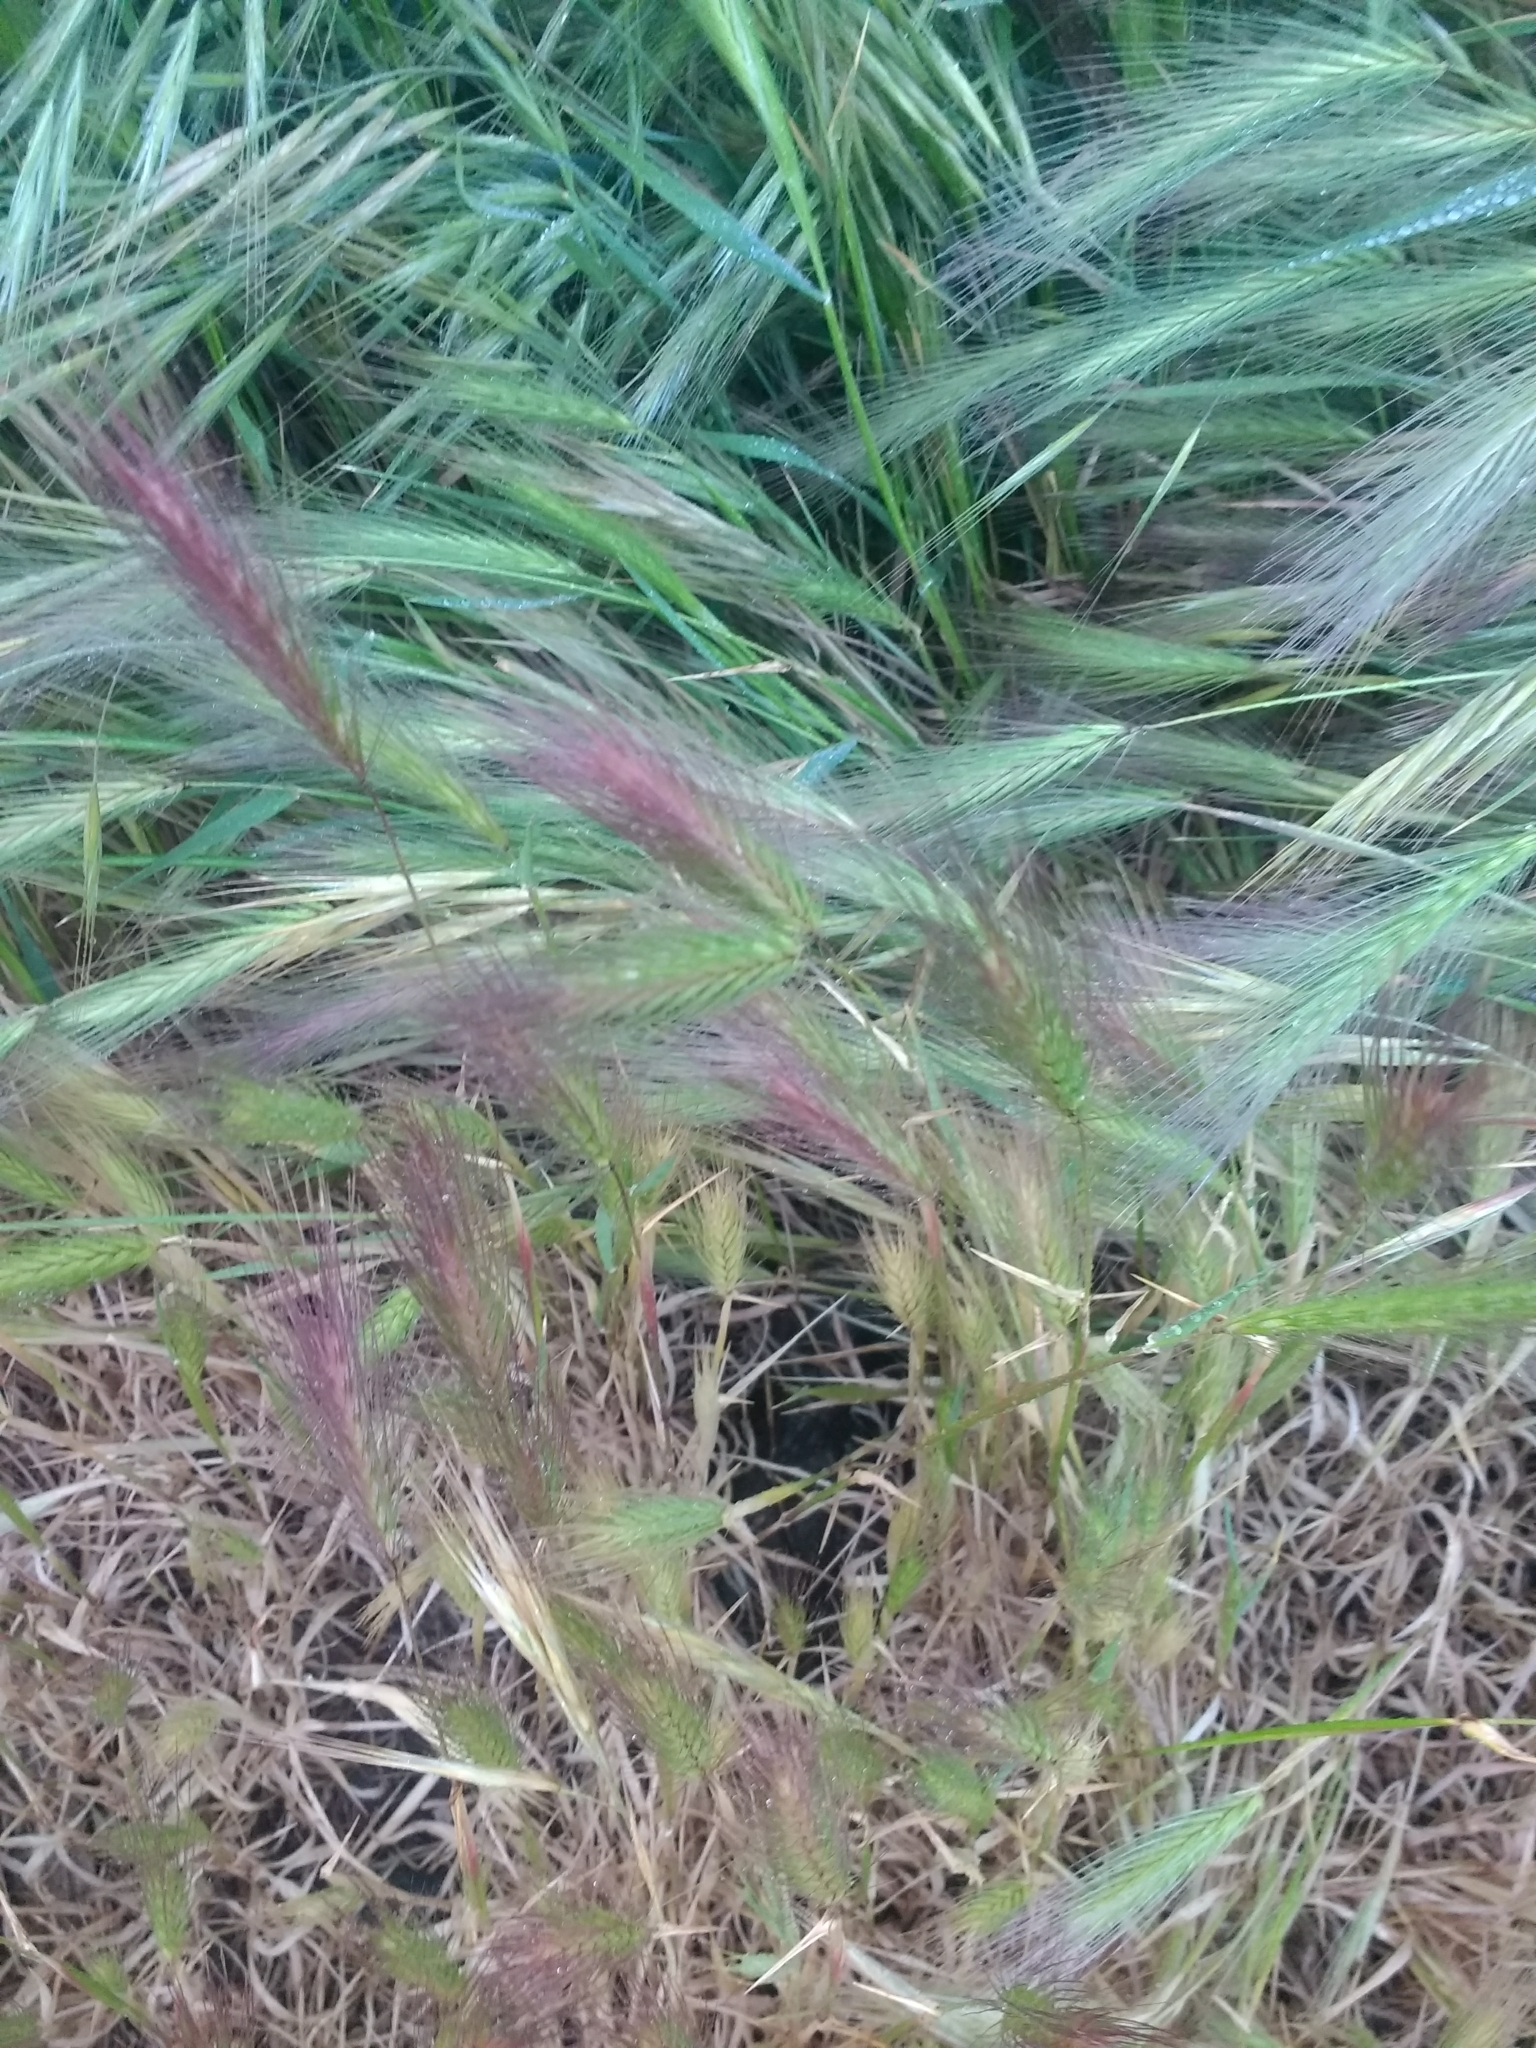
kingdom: Plantae
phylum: Tracheophyta
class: Liliopsida
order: Poales
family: Poaceae
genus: Hordeum
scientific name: Hordeum murinum
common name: Wall barley
